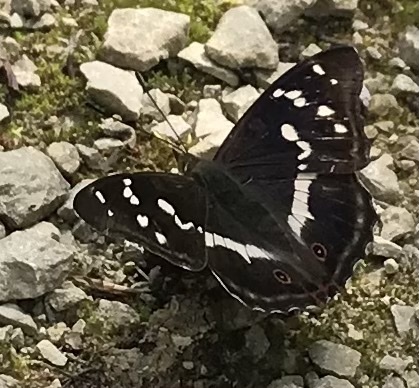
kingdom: Animalia
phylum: Arthropoda
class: Insecta
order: Lepidoptera
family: Nymphalidae
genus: Apatura
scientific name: Apatura iris
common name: Purple emperor
